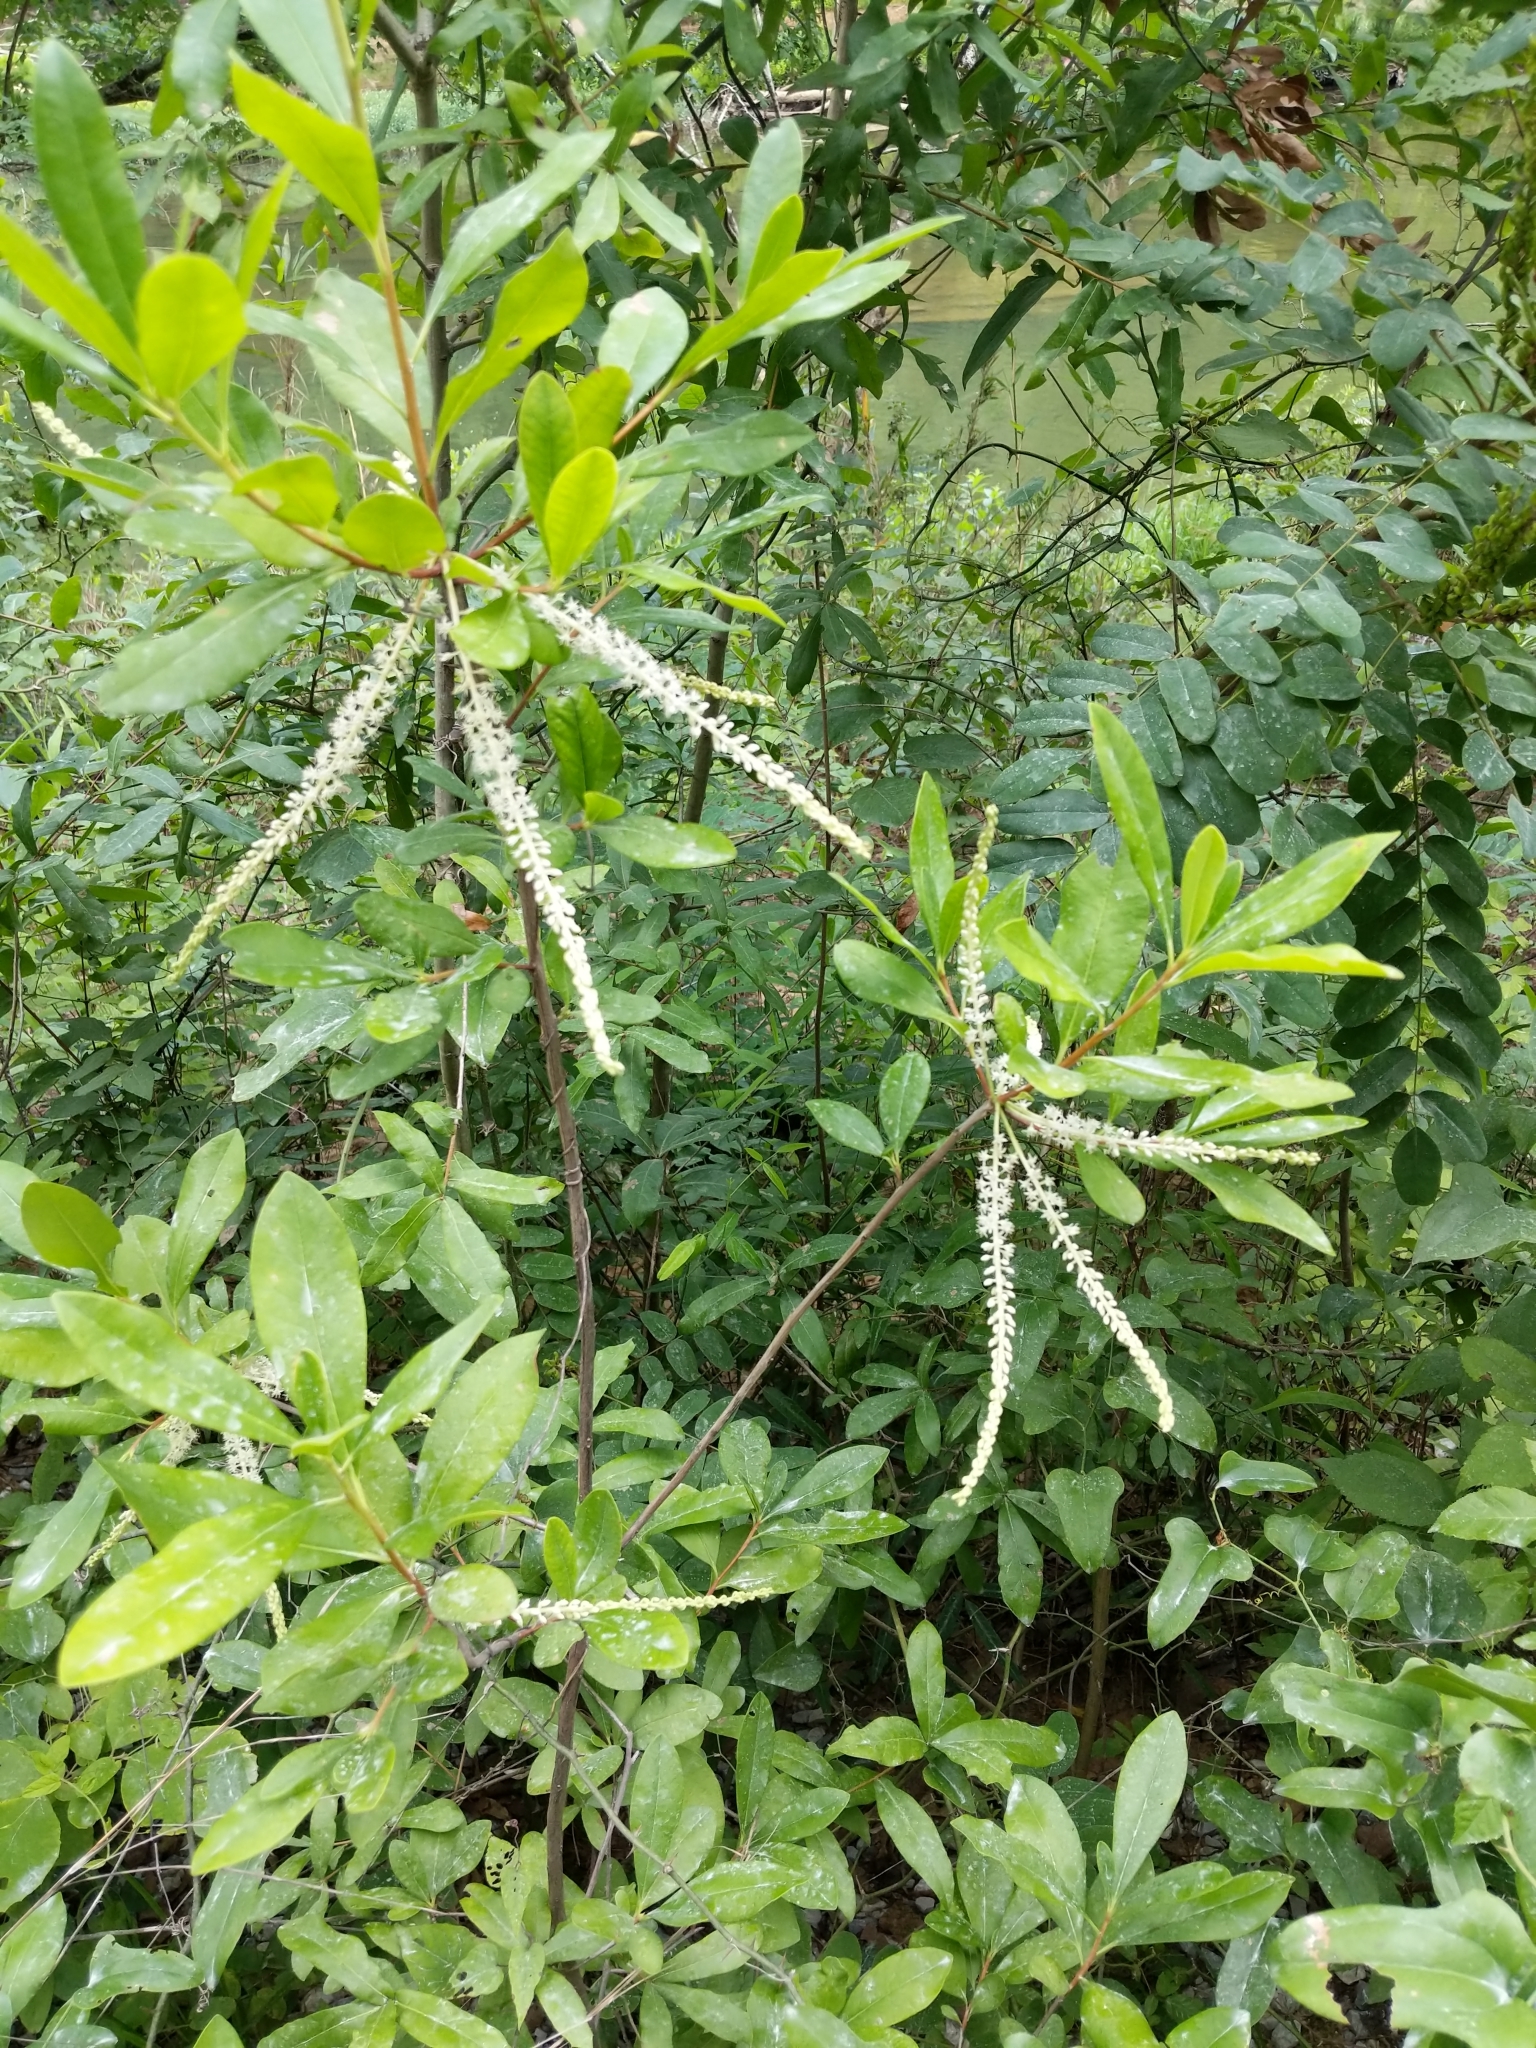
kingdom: Plantae
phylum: Tracheophyta
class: Magnoliopsida
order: Ericales
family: Cyrillaceae
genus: Cyrilla
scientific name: Cyrilla racemiflora
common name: Black titi
